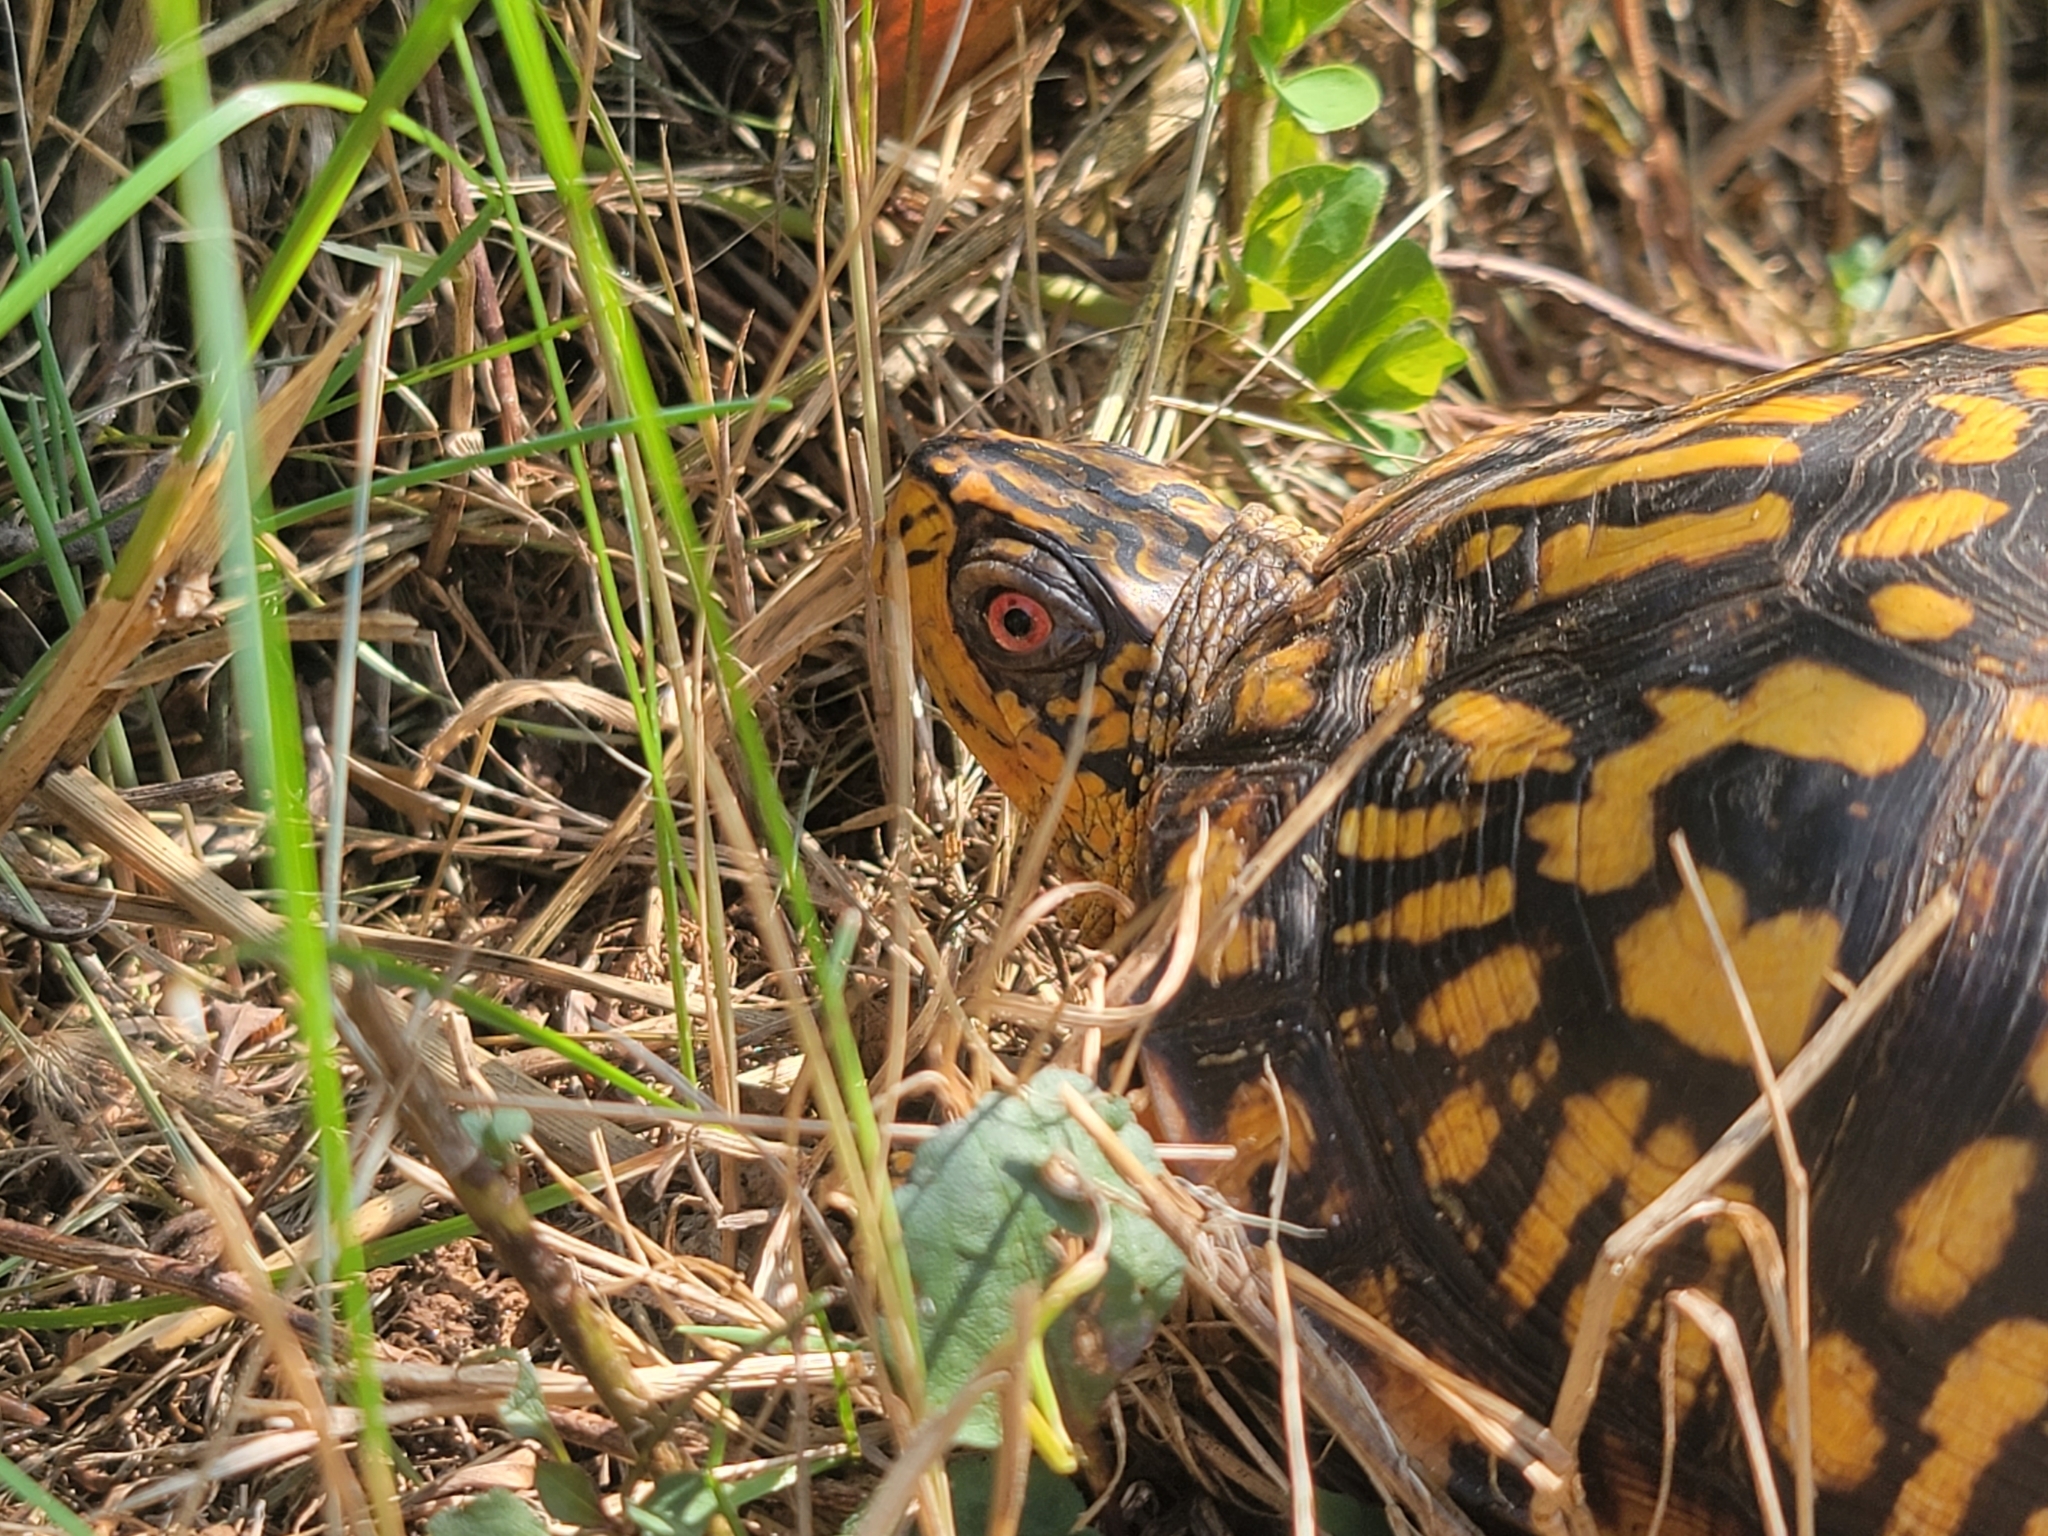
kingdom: Animalia
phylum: Chordata
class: Testudines
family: Emydidae
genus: Terrapene
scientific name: Terrapene carolina
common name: Common box turtle
